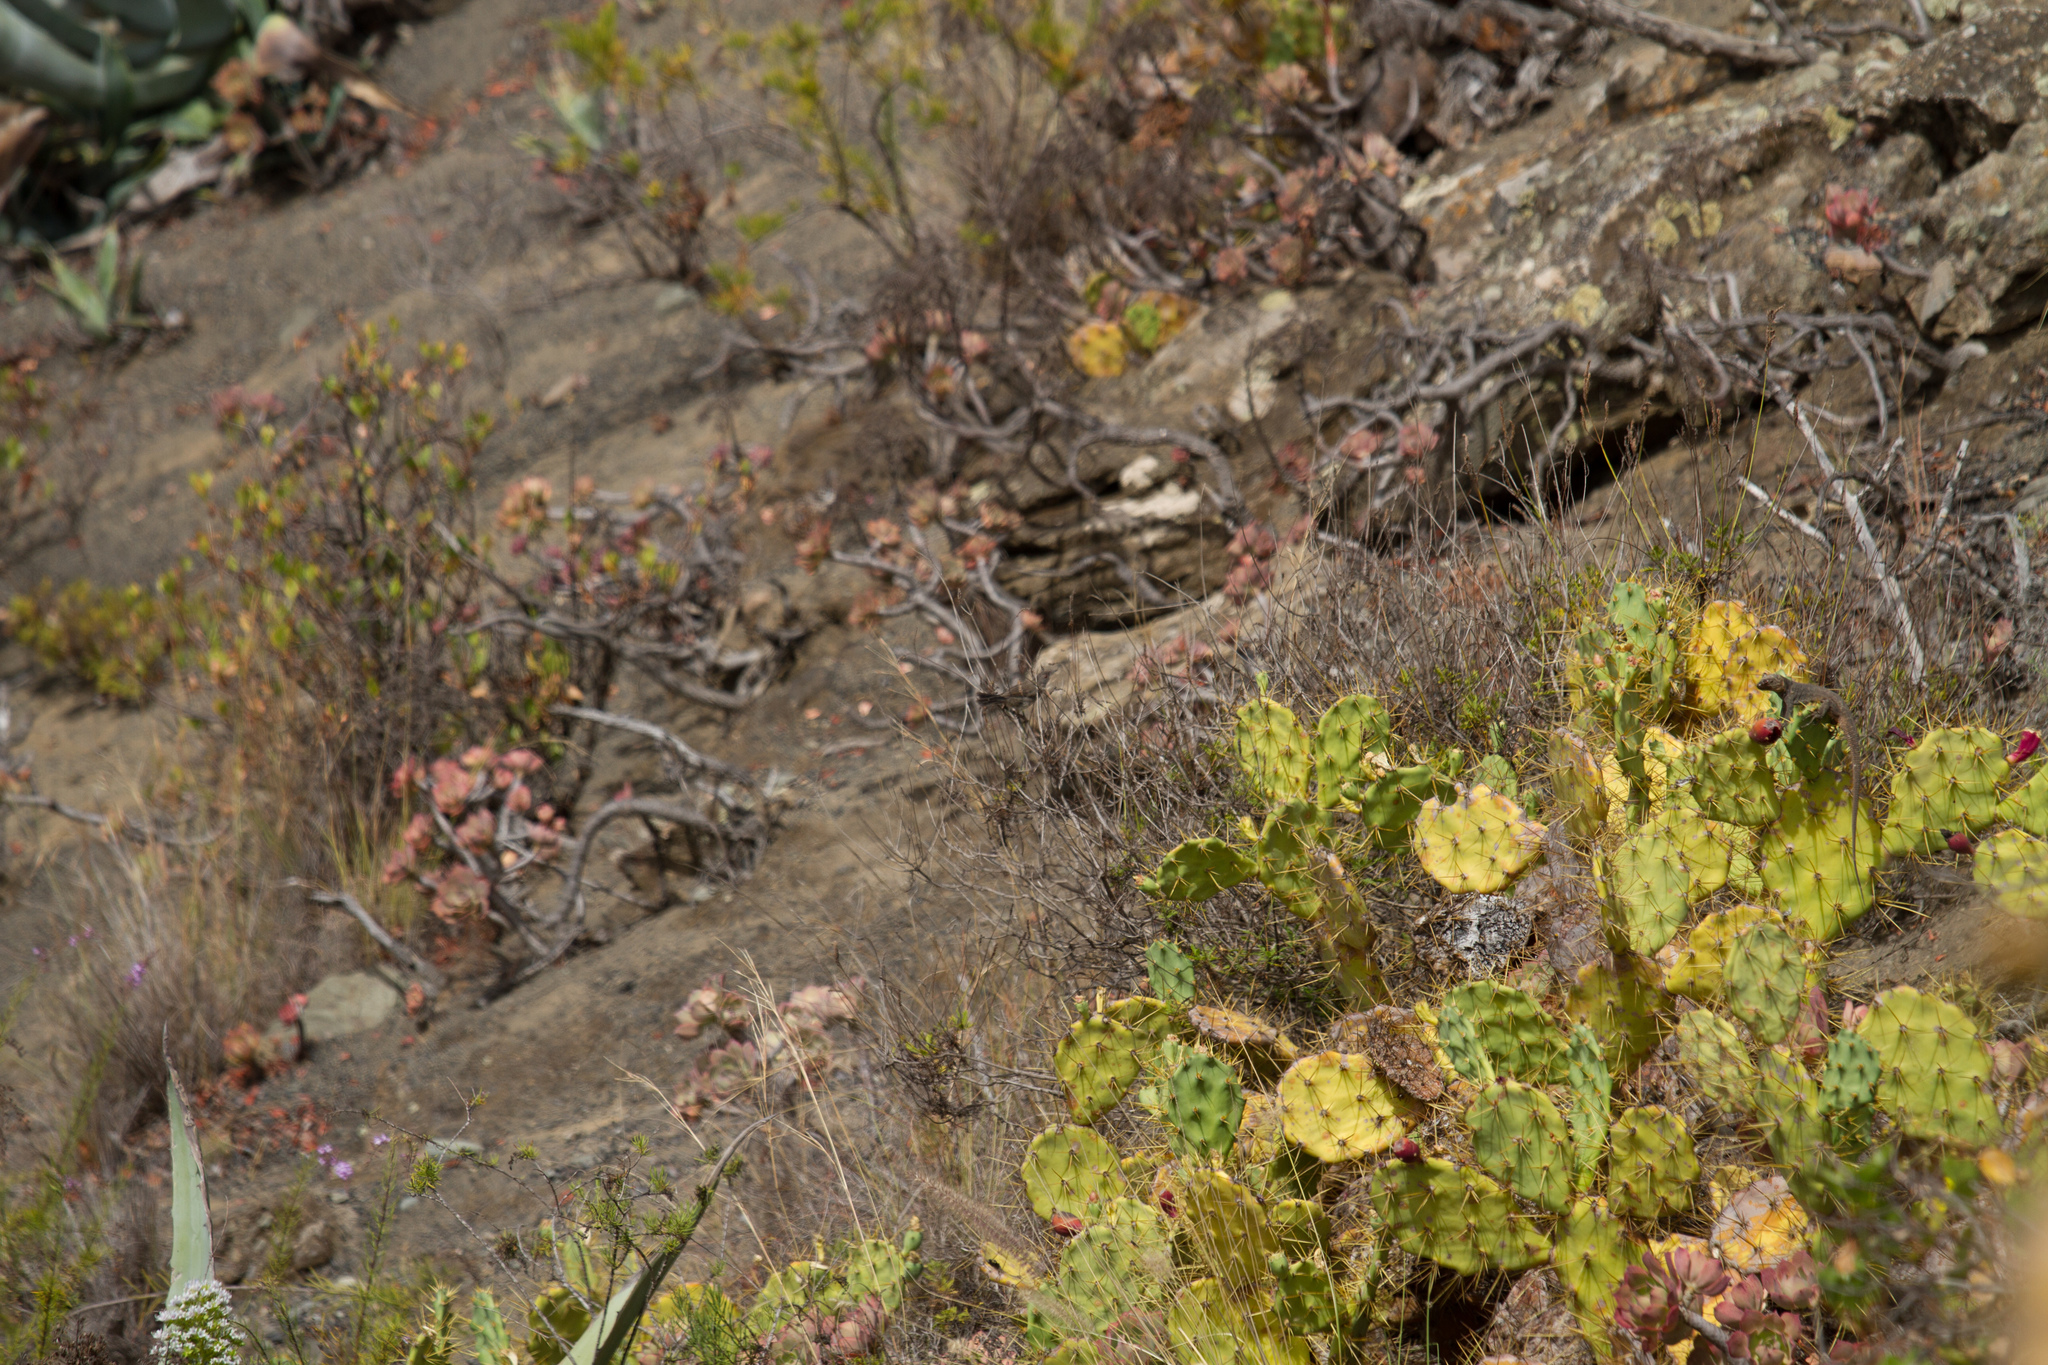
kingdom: Animalia
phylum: Chordata
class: Squamata
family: Lacertidae
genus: Gallotia
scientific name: Gallotia stehlini
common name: Gran canaria giant lizard
